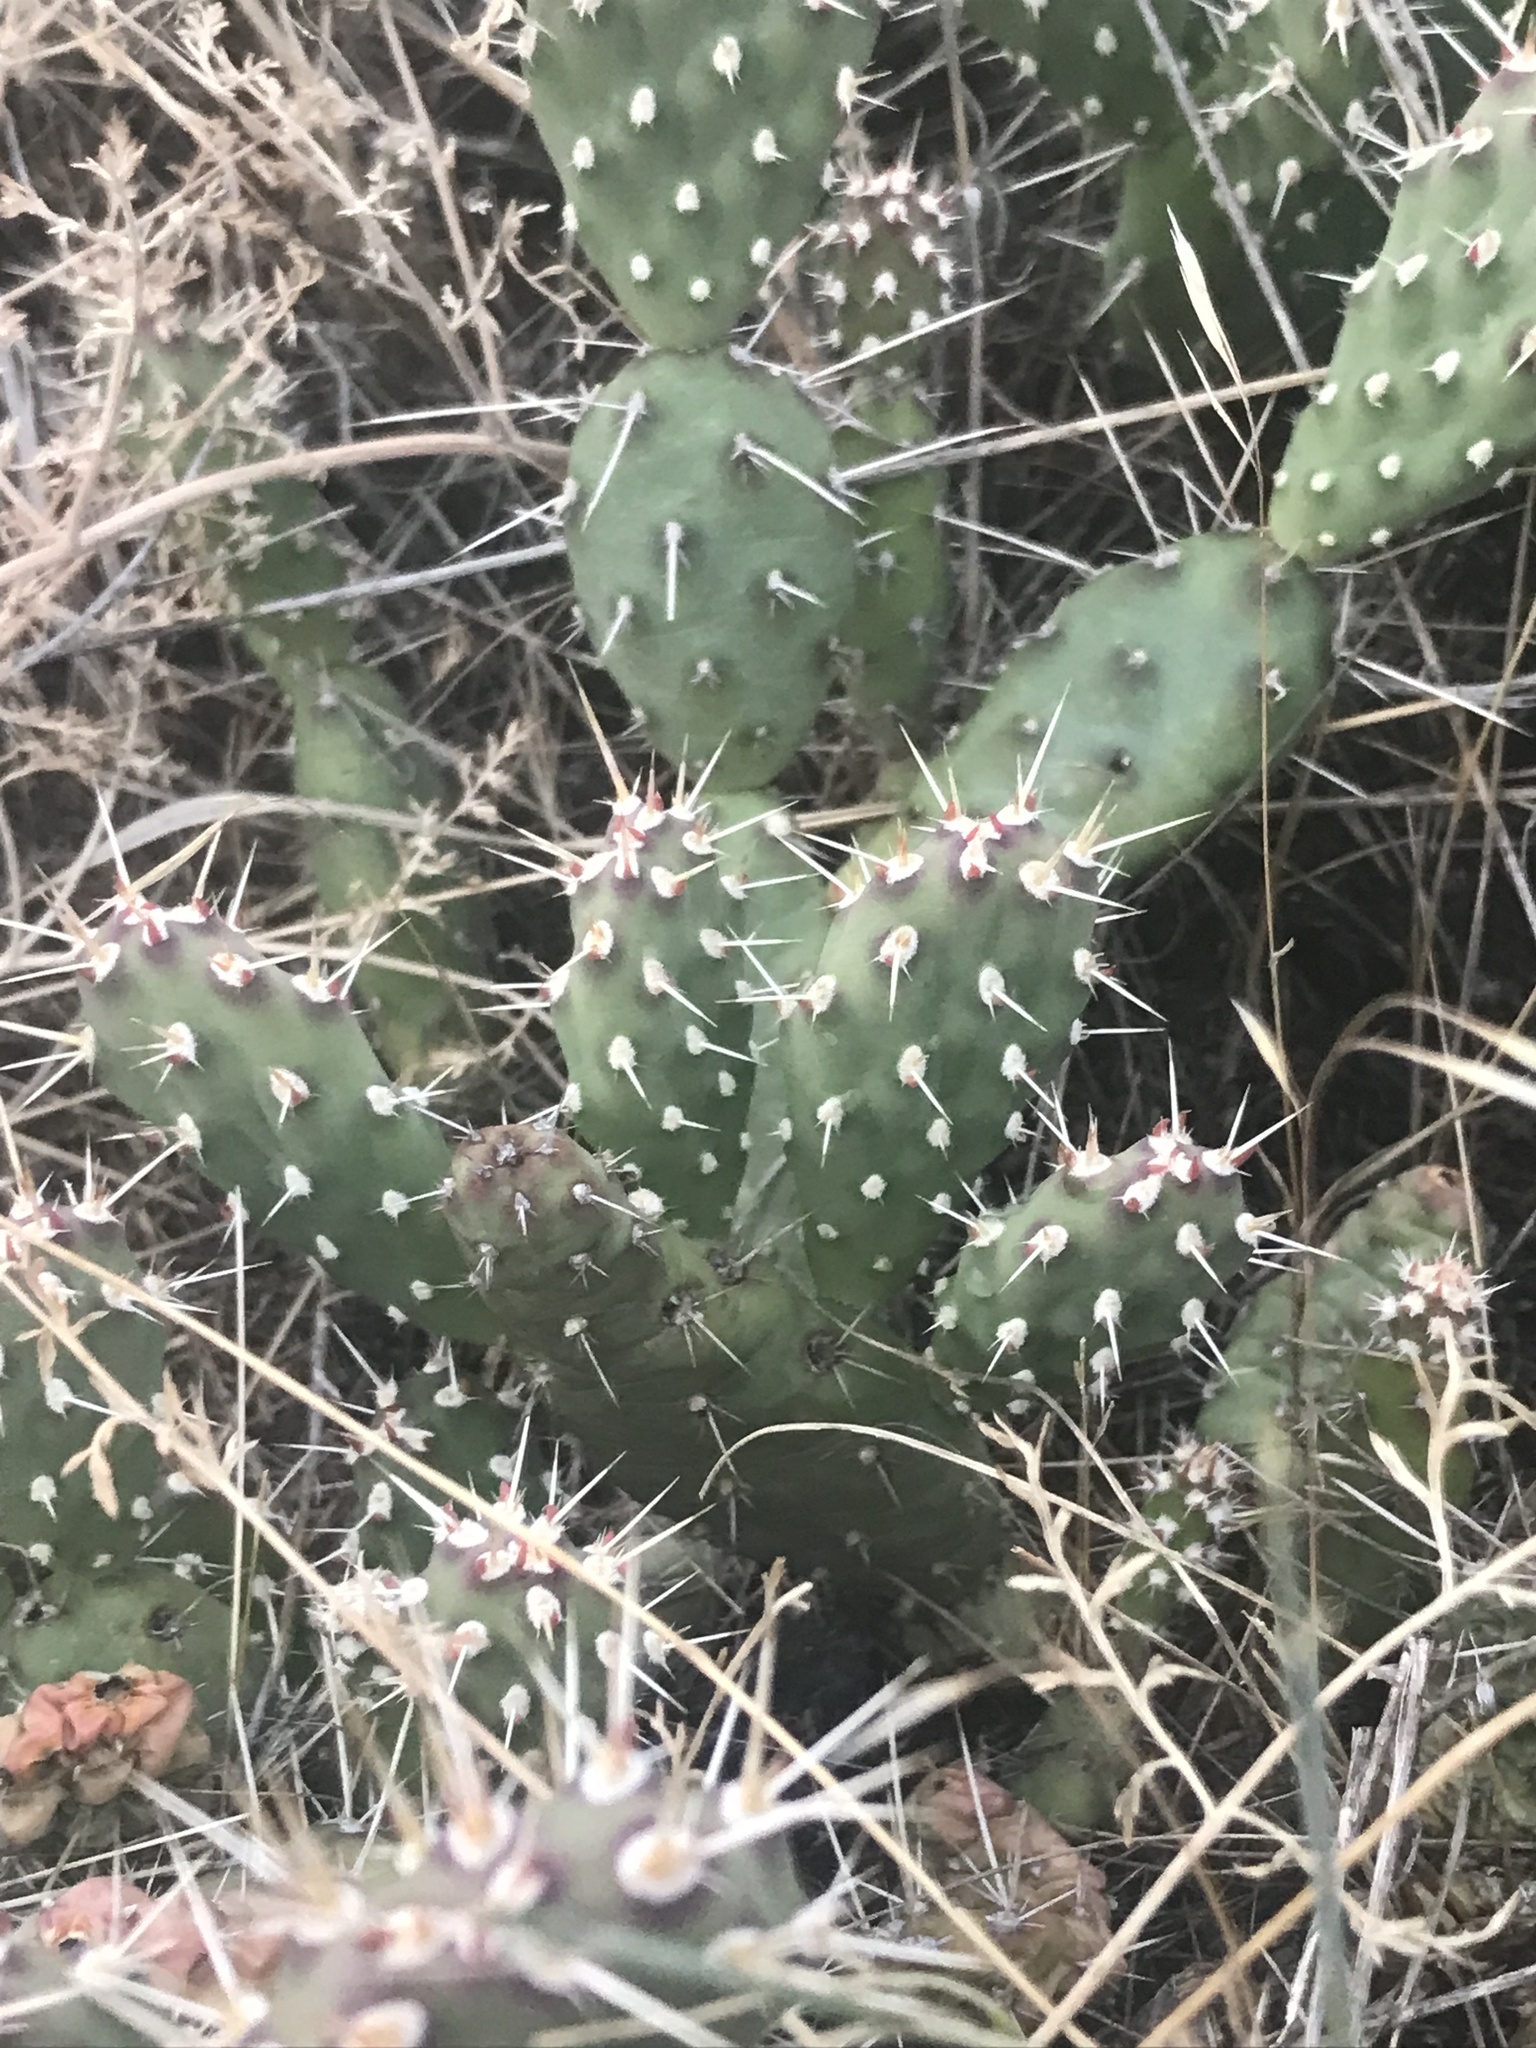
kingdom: Plantae
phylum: Tracheophyta
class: Magnoliopsida
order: Caryophyllales
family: Cactaceae
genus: Opuntia
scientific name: Opuntia fragilis
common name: Brittle cactus
